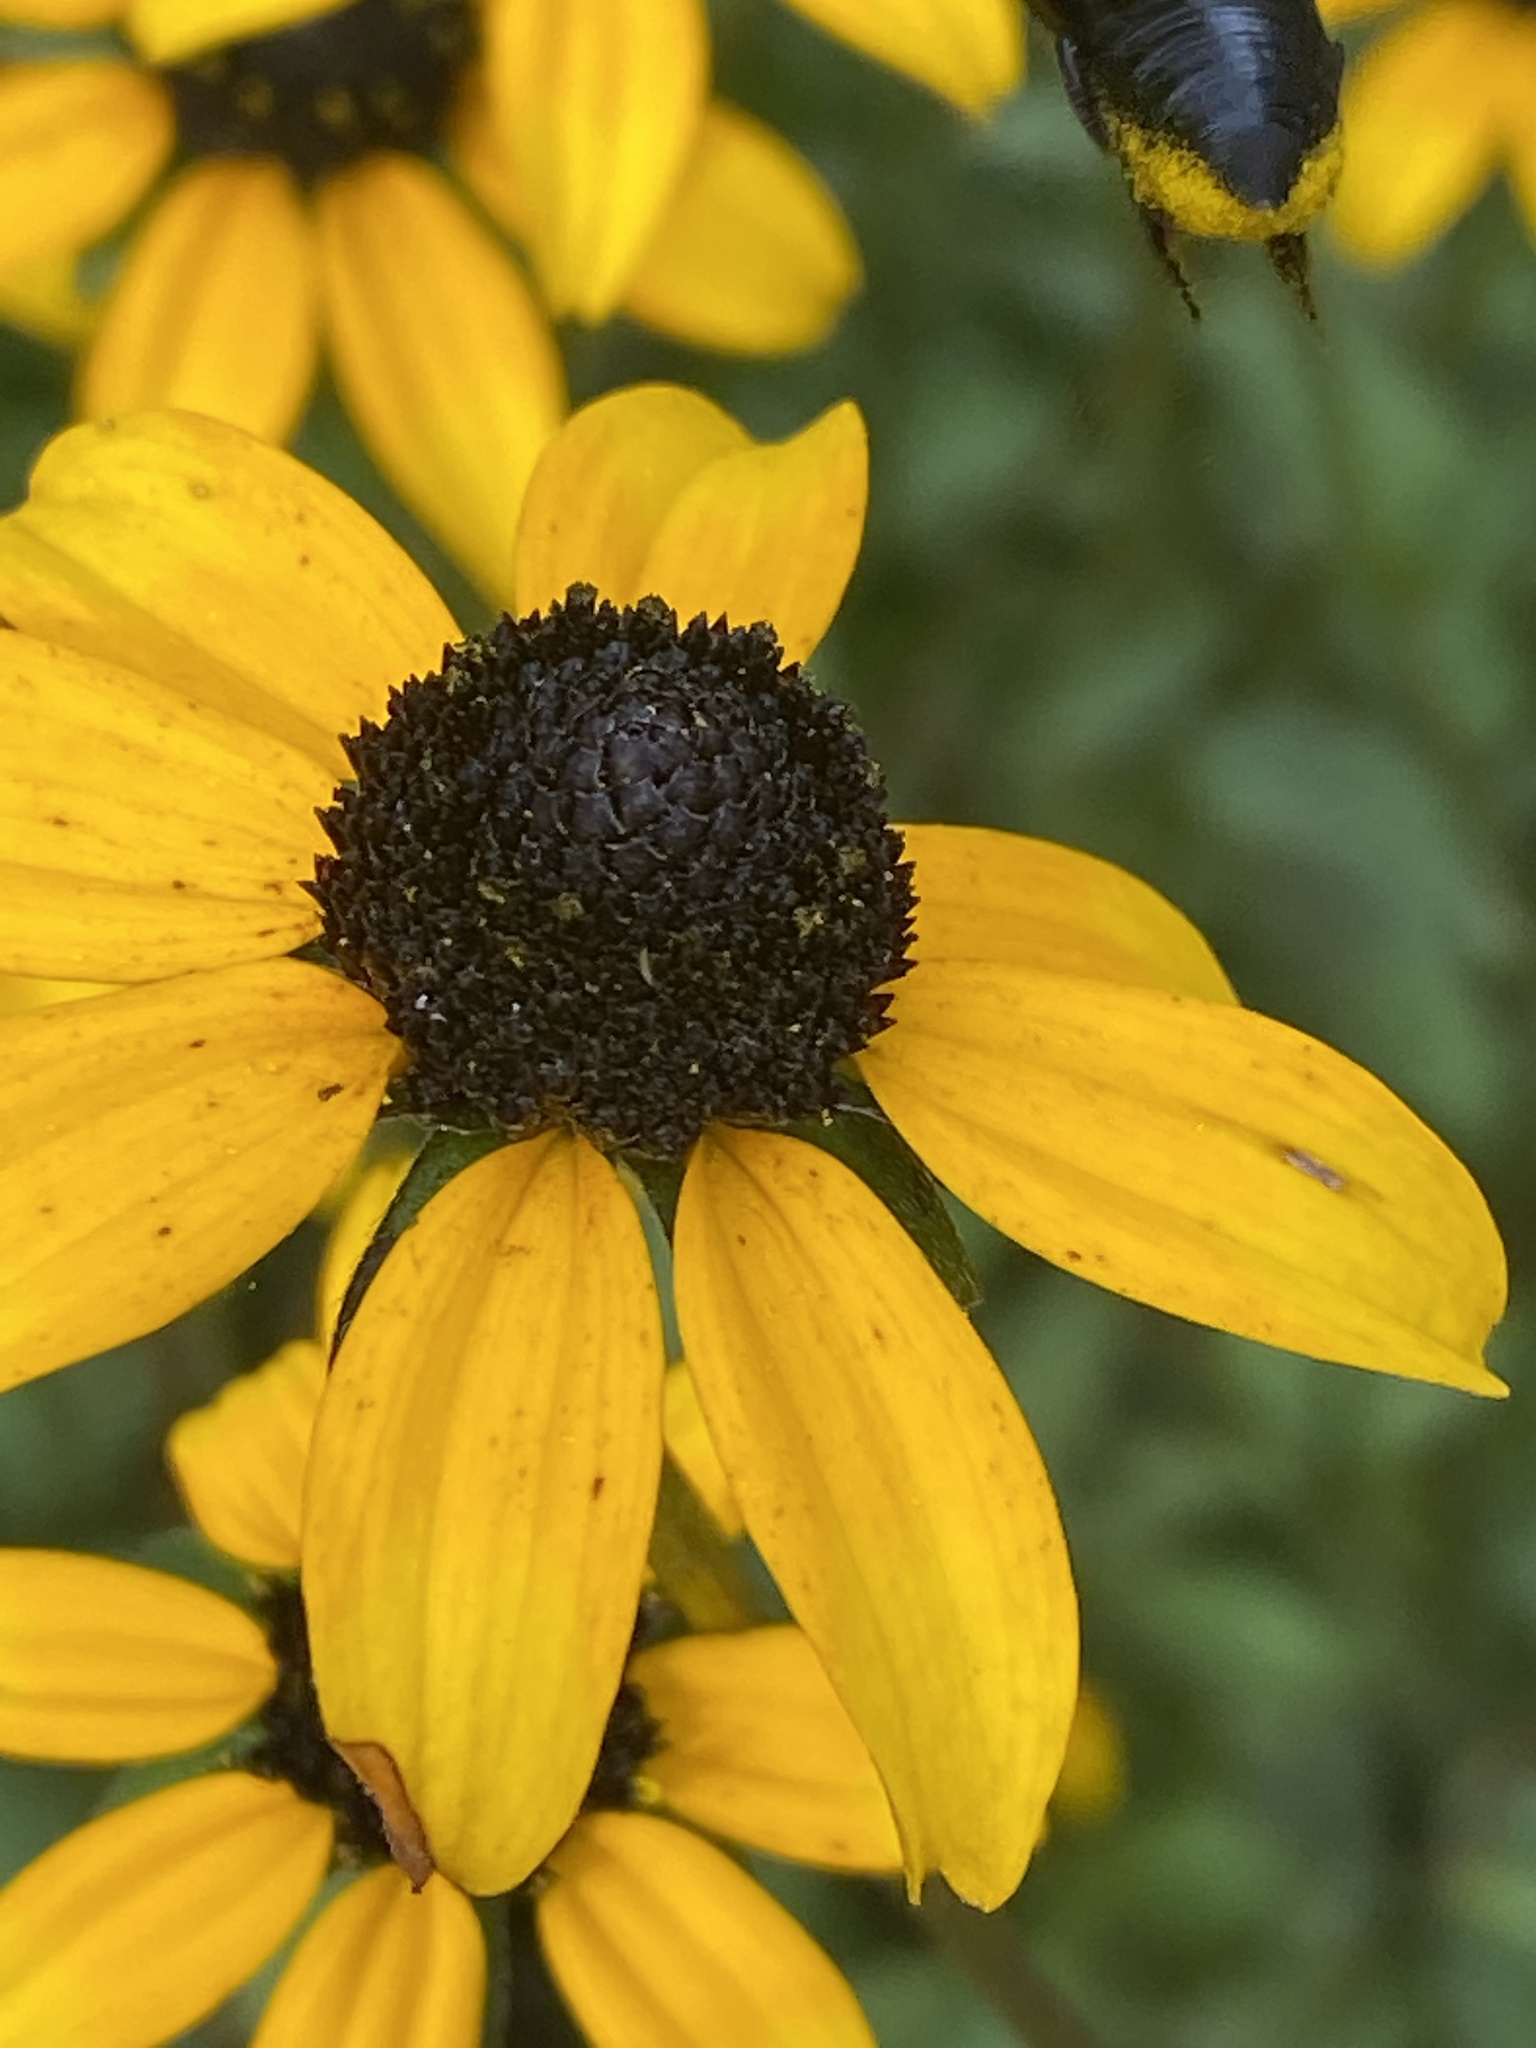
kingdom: Animalia
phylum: Arthropoda
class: Insecta
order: Hymenoptera
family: Megachilidae
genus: Megachile
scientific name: Megachile xylocopoides
